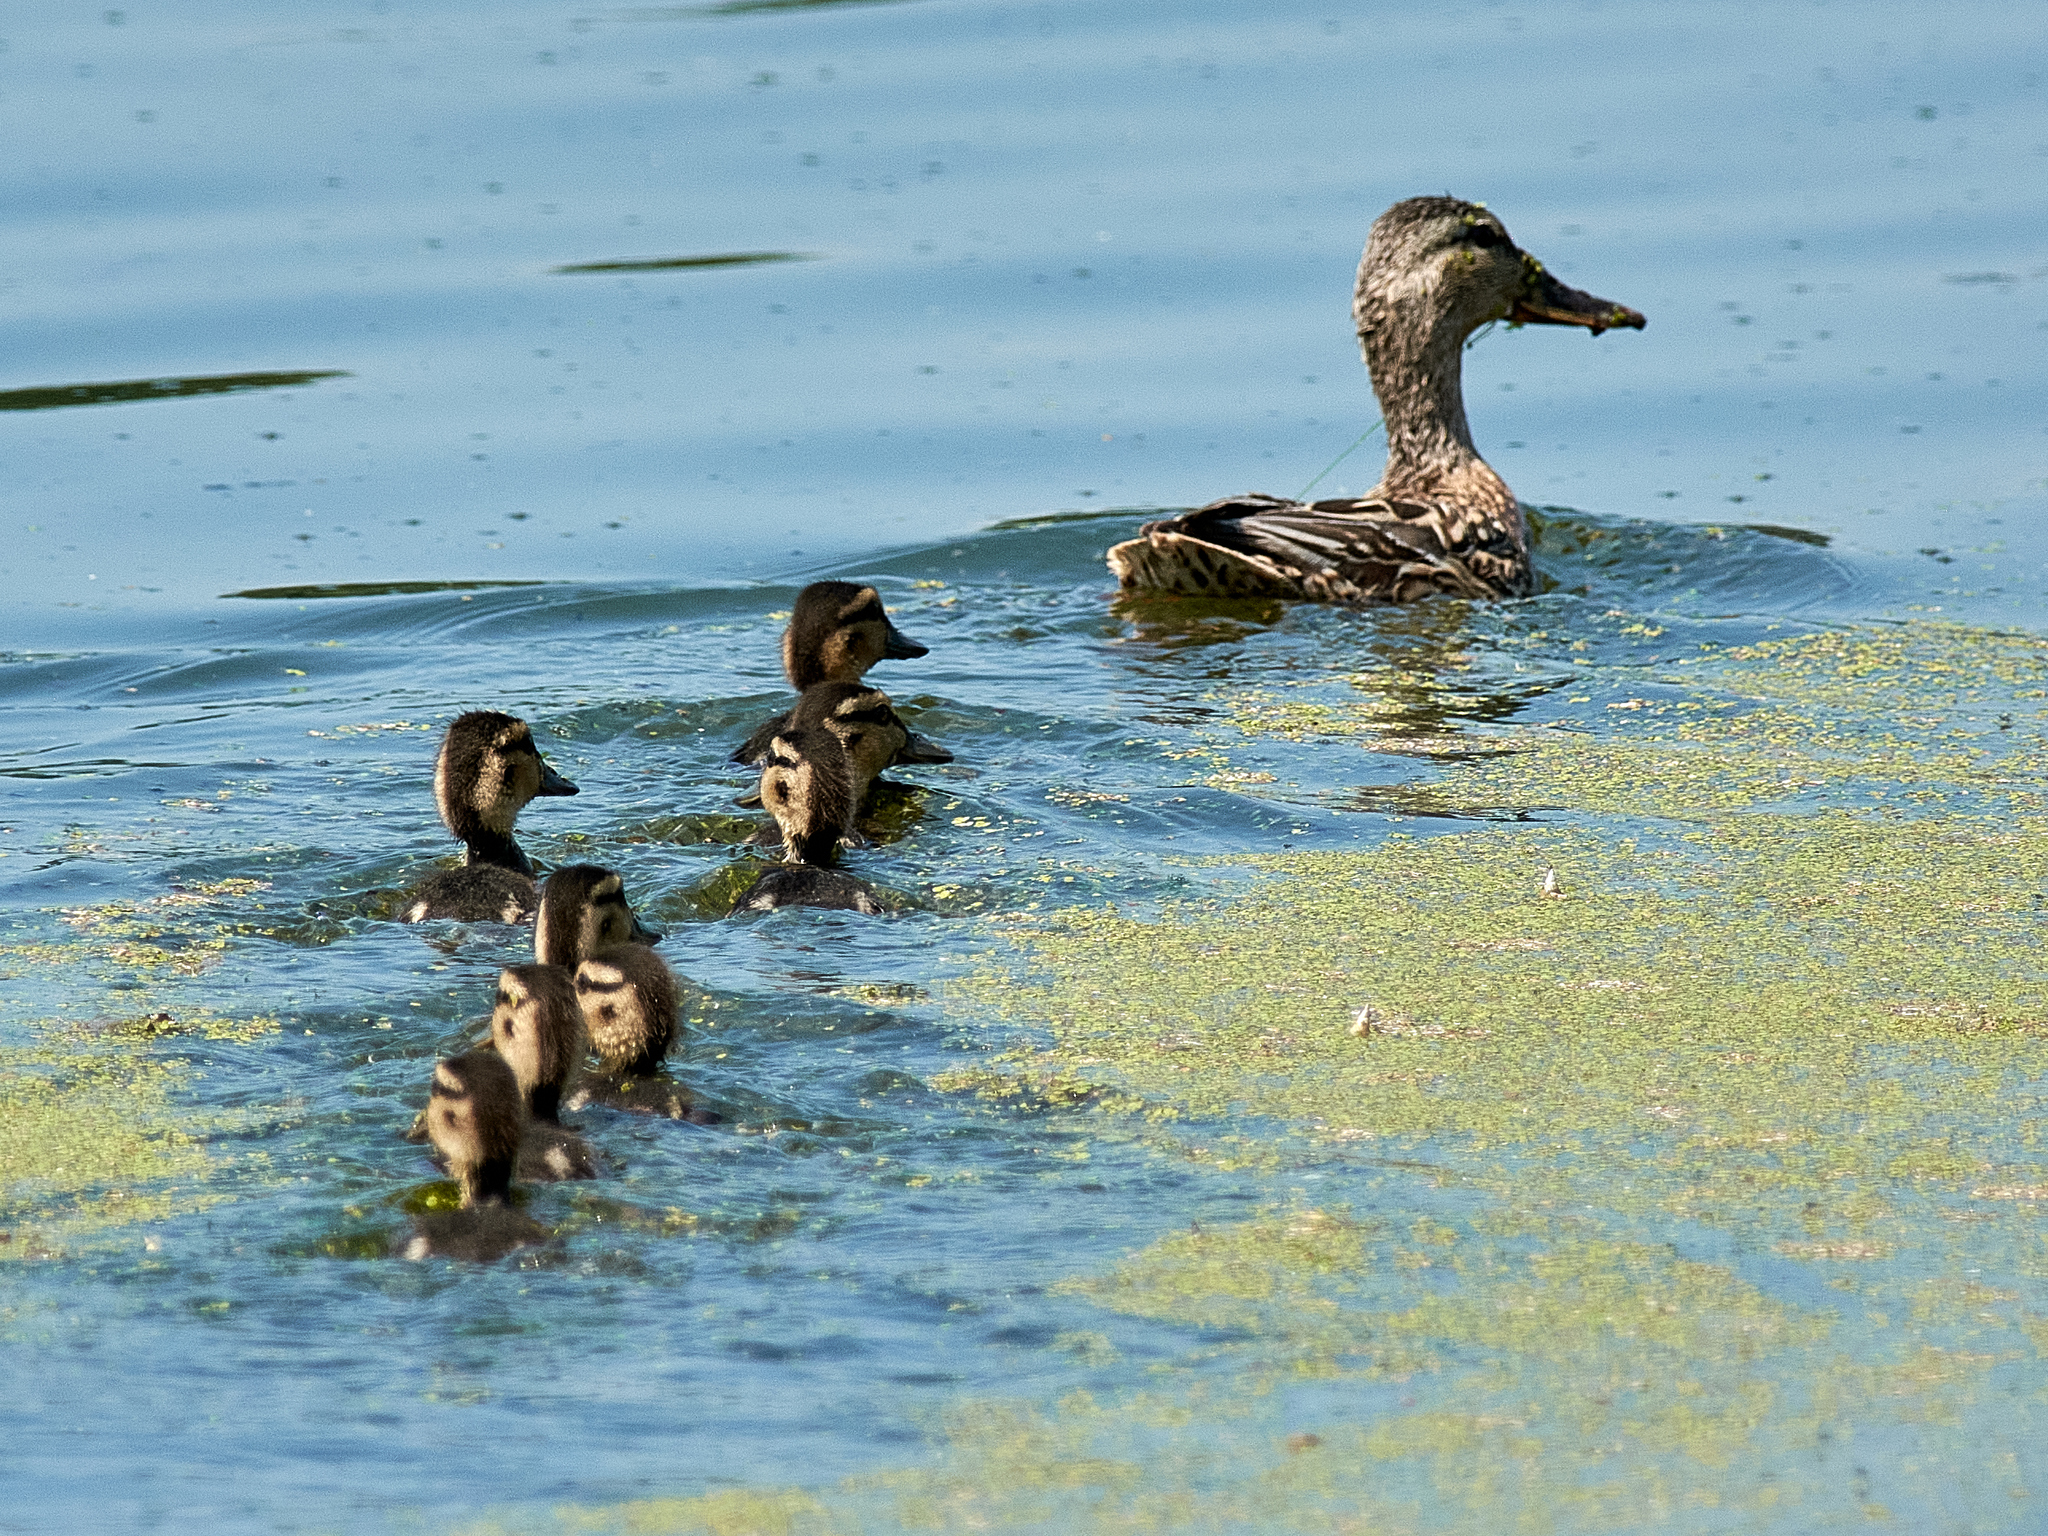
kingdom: Animalia
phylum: Chordata
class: Aves
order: Anseriformes
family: Anatidae
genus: Anas
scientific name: Anas platyrhynchos
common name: Mallard
